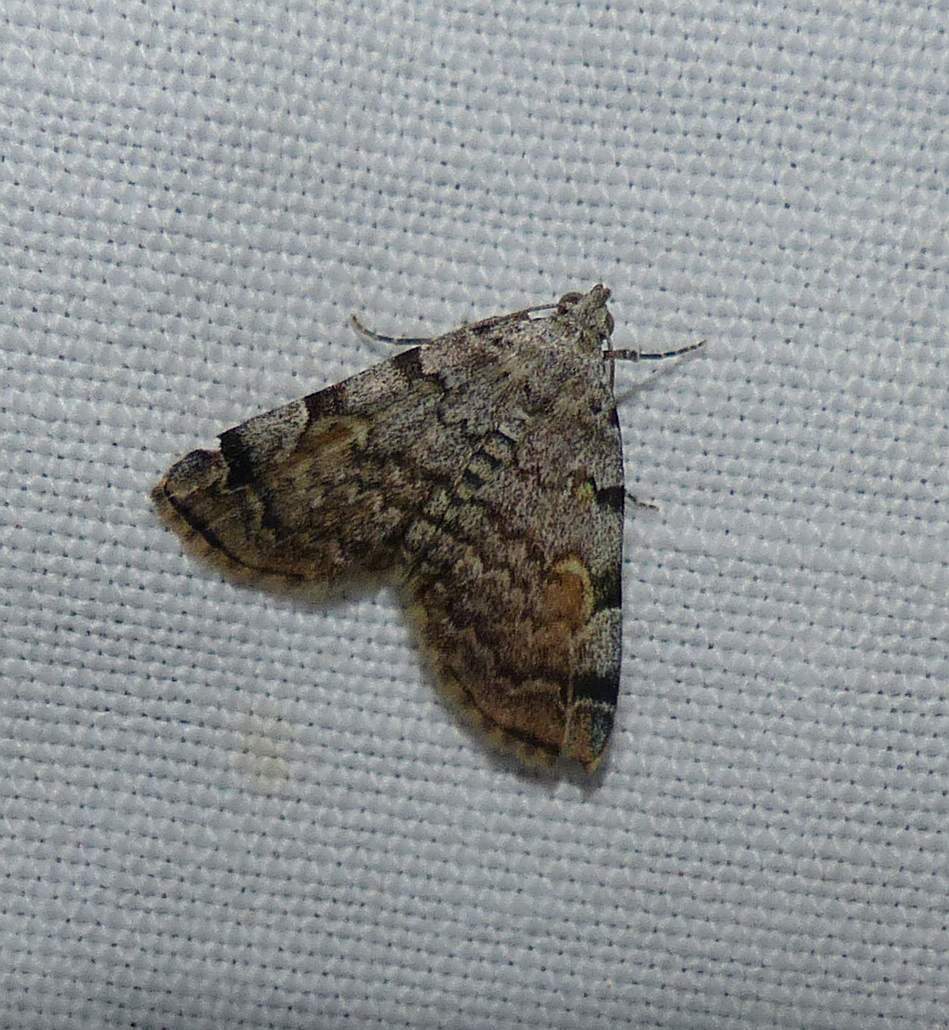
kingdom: Animalia
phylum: Arthropoda
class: Insecta
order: Lepidoptera
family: Erebidae
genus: Idia
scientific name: Idia americalis
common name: American idia moth
